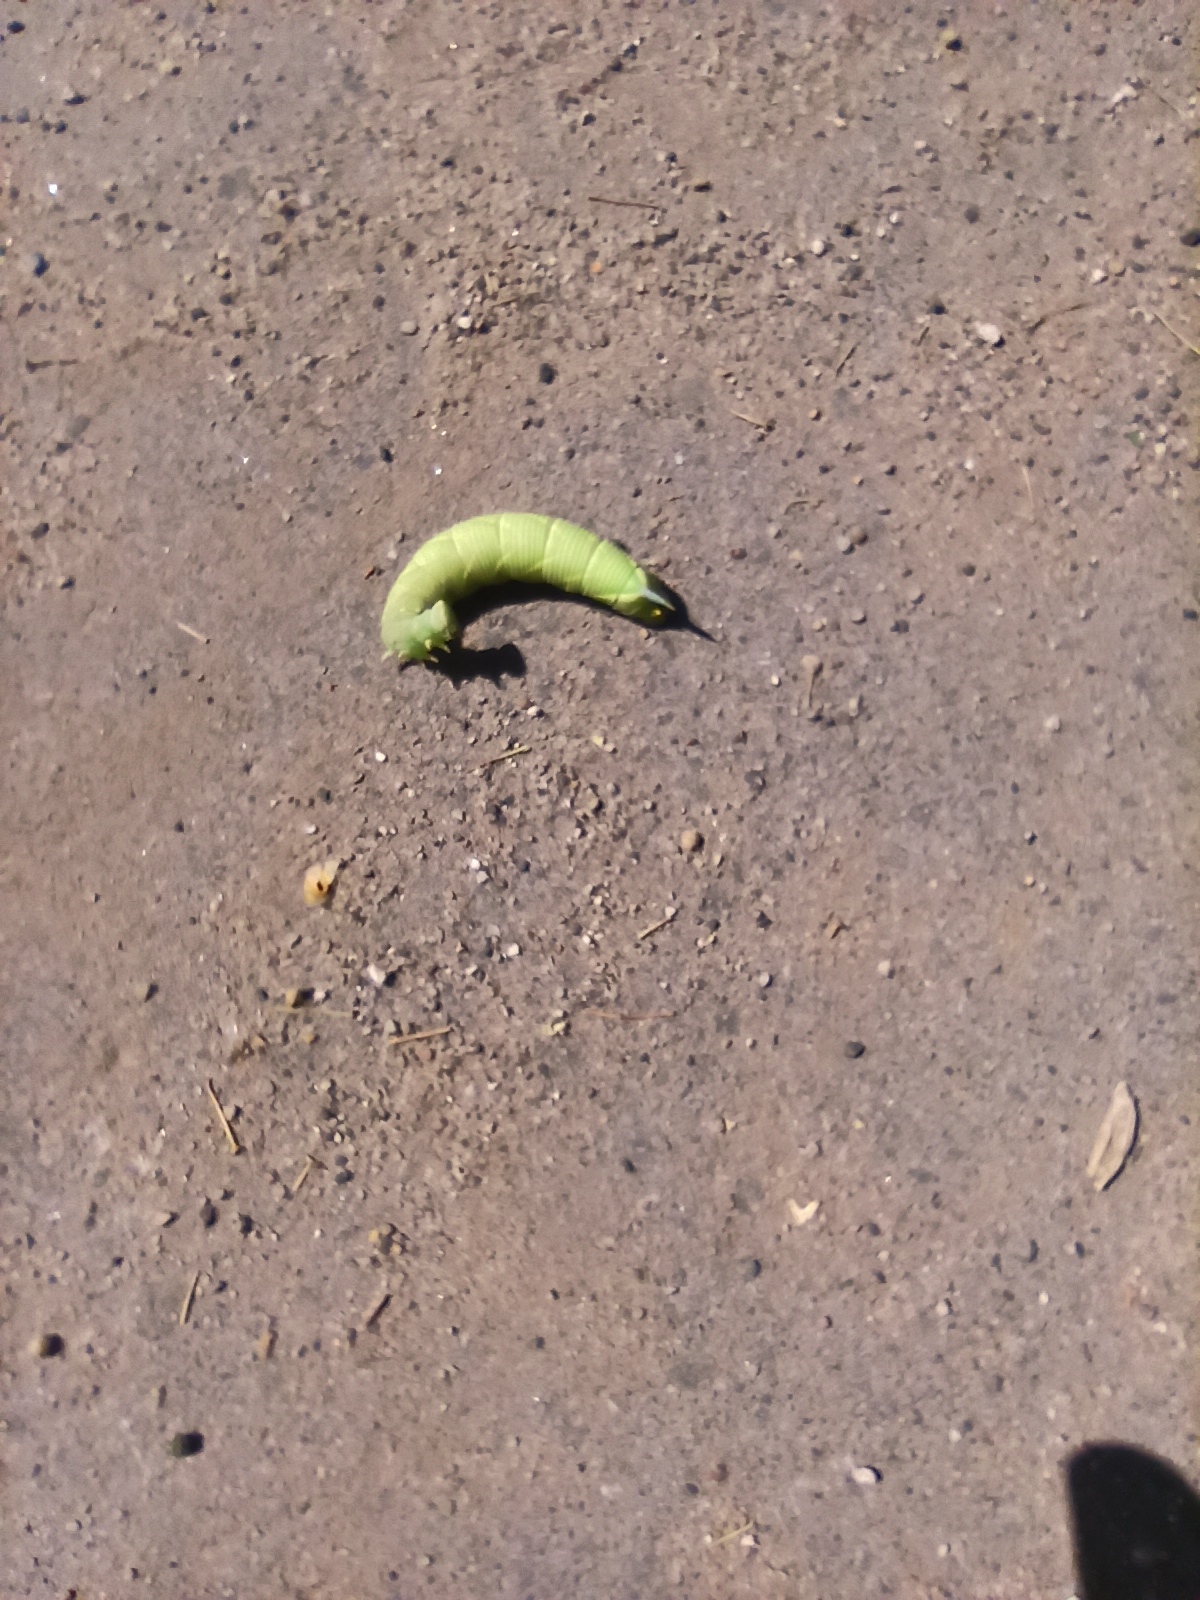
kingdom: Animalia
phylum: Arthropoda
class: Insecta
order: Lepidoptera
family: Sphingidae
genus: Mimas
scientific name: Mimas tiliae
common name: Lime hawk-moth
